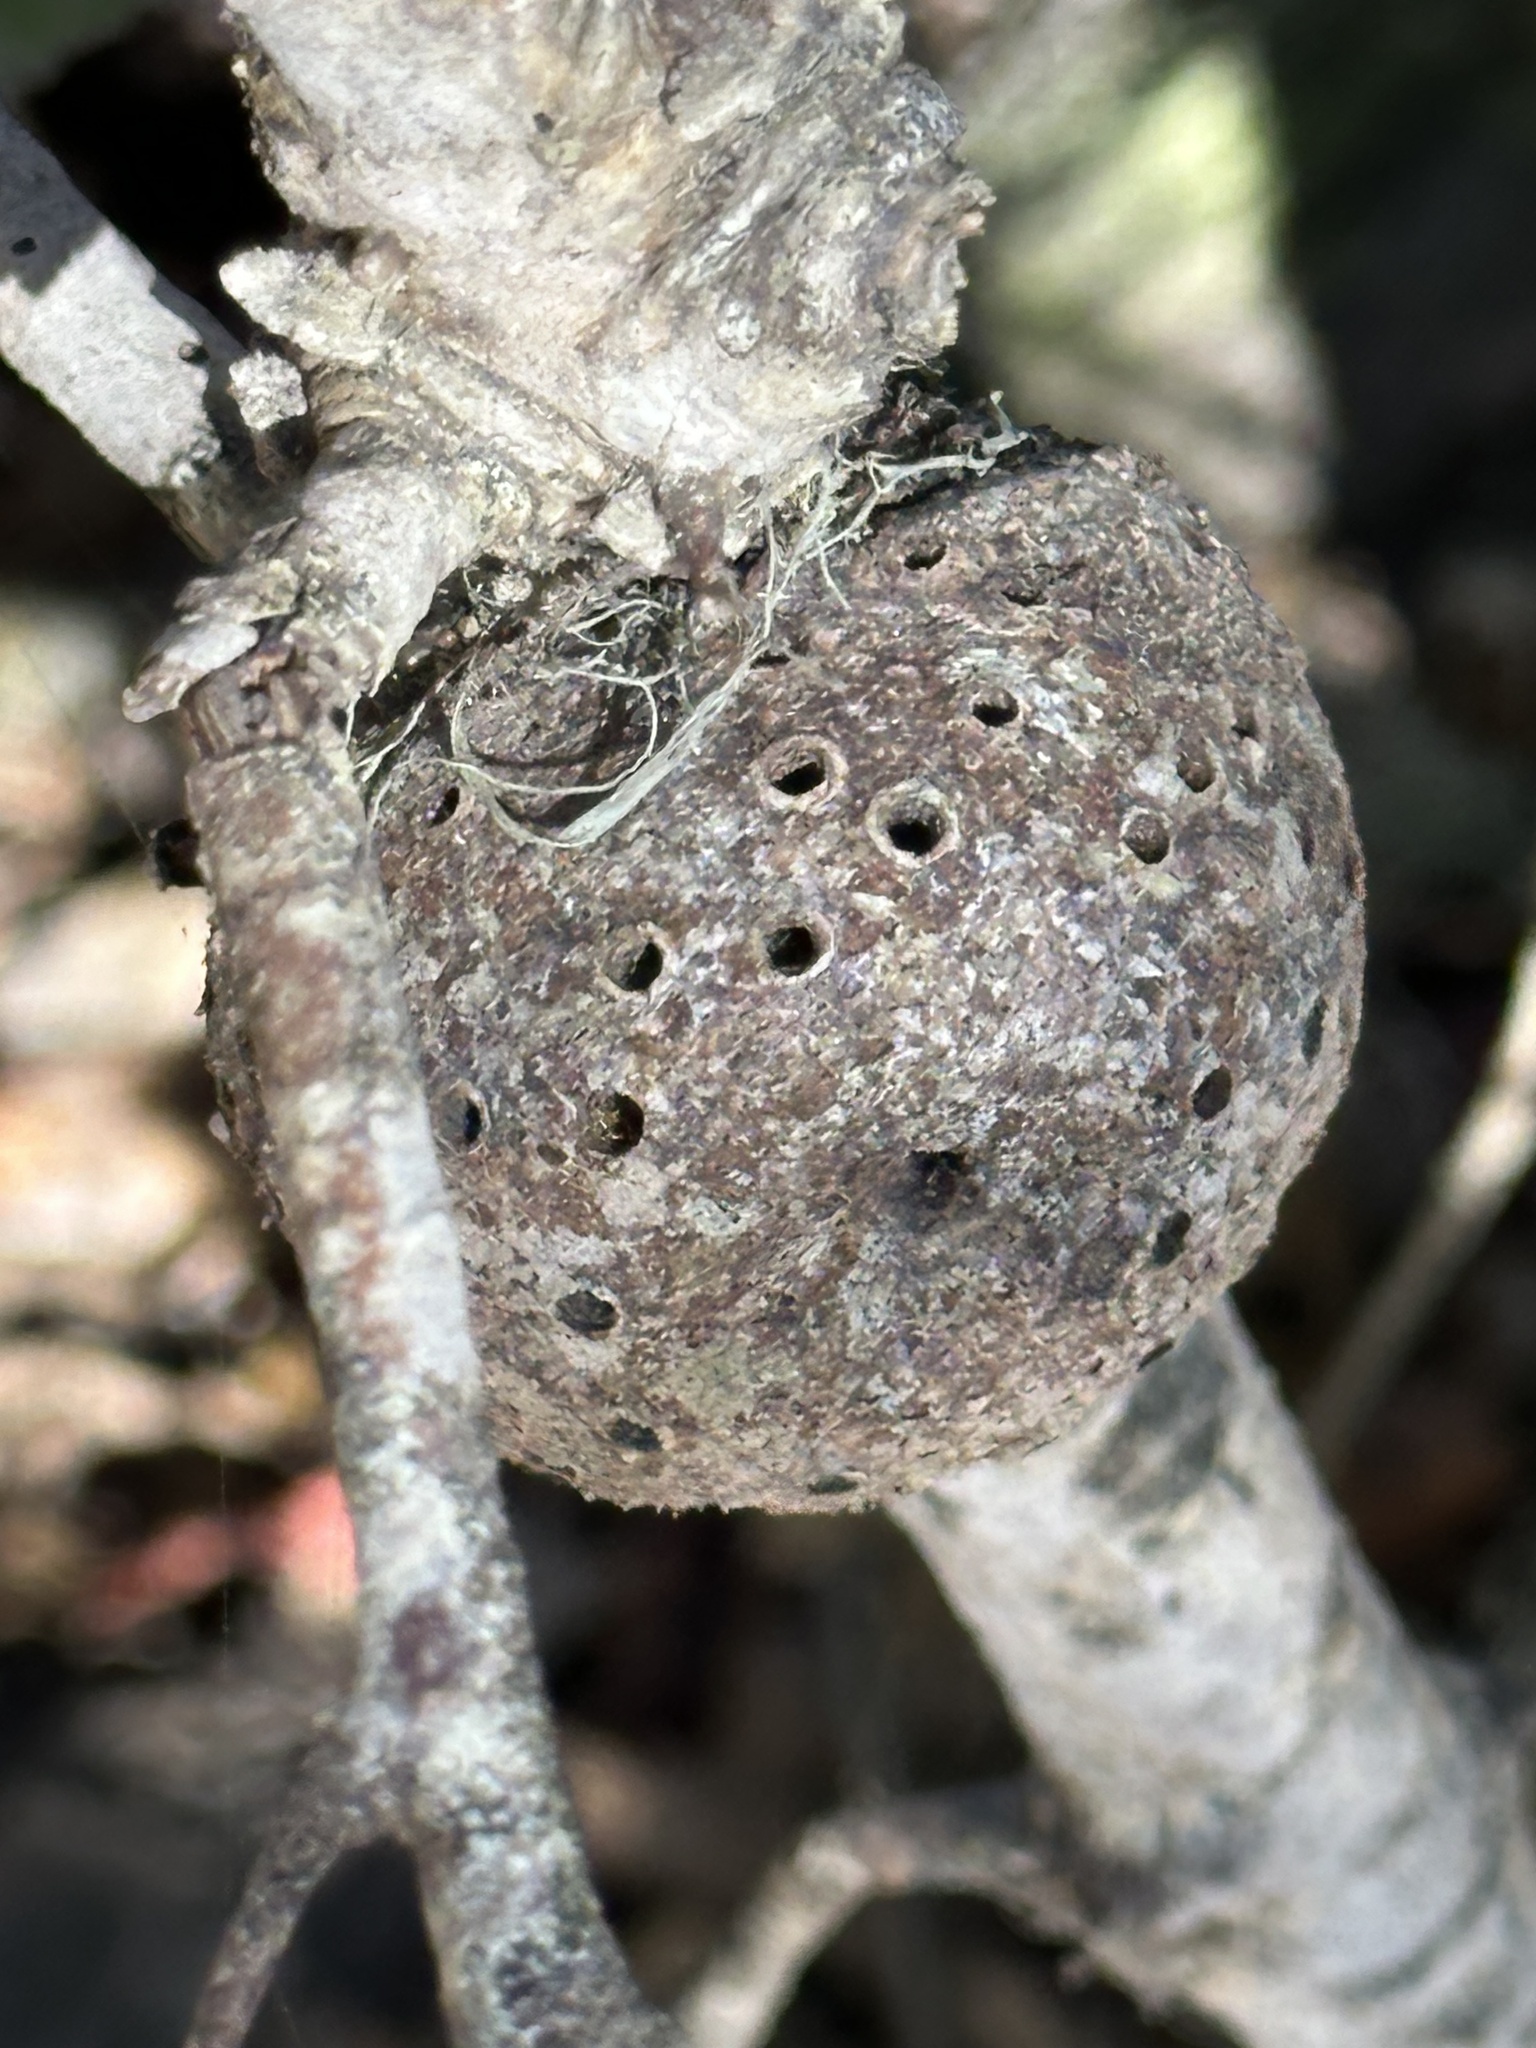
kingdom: Animalia
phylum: Arthropoda
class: Insecta
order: Hymenoptera
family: Cynipidae
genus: Callirhytis
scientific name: Callirhytis
